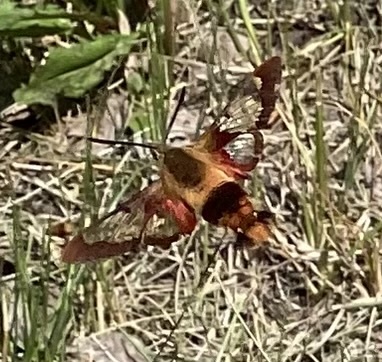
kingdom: Animalia
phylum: Arthropoda
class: Insecta
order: Lepidoptera
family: Sphingidae
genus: Hemaris
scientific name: Hemaris thysbe
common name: Common clear-wing
